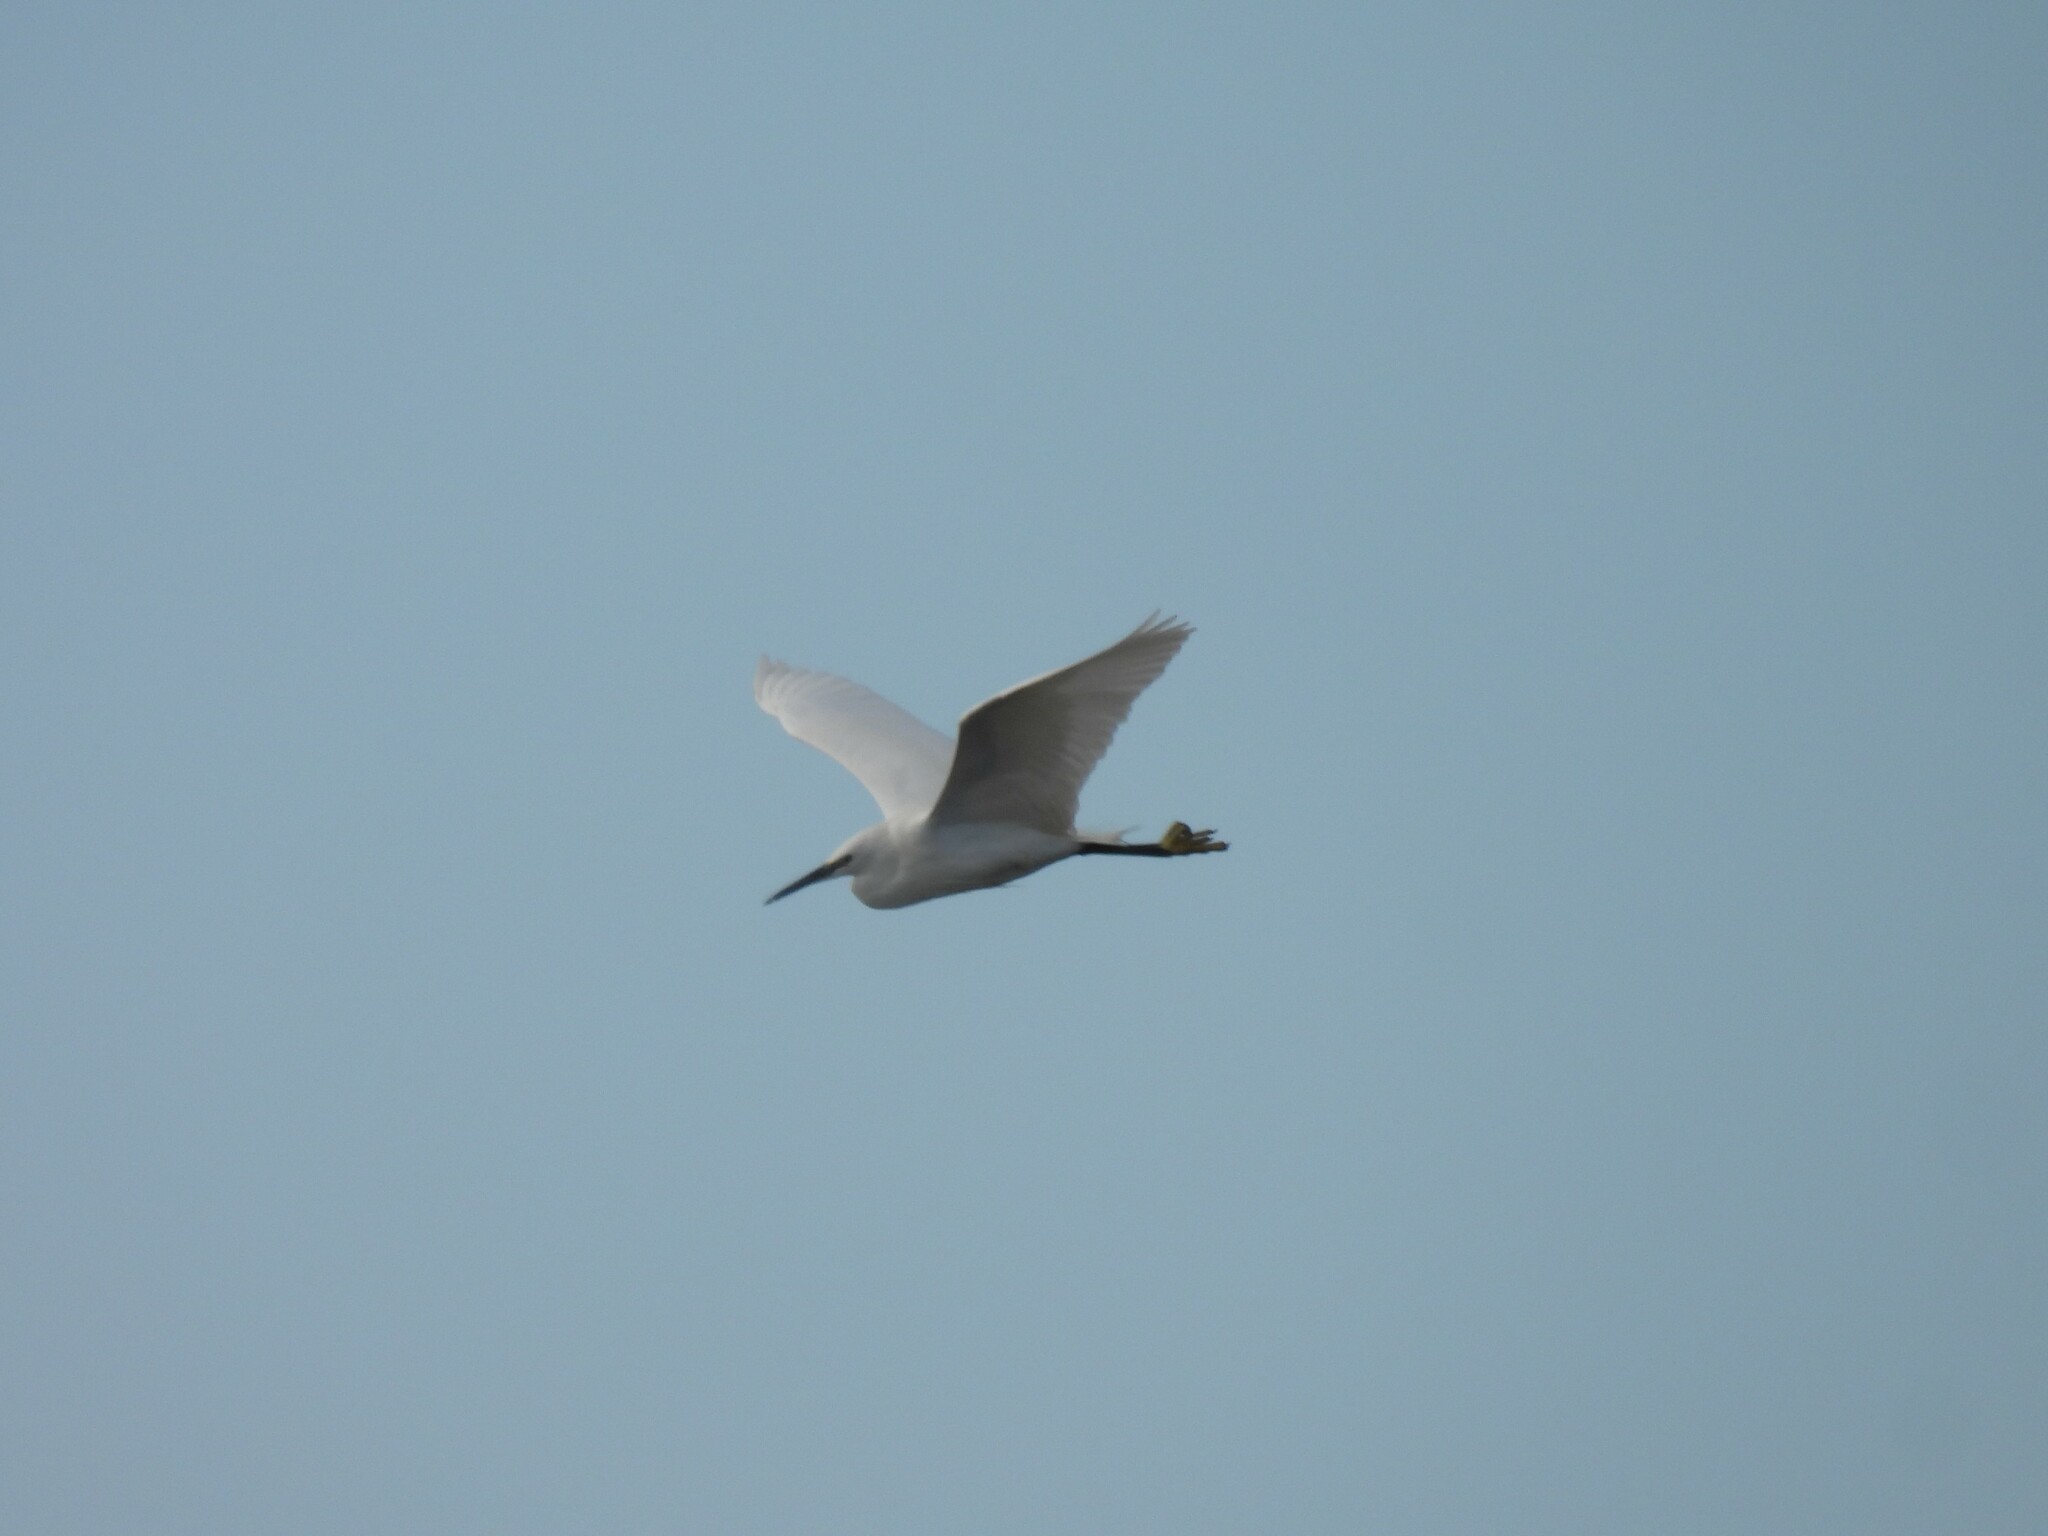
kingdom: Animalia
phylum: Chordata
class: Aves
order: Pelecaniformes
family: Ardeidae
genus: Egretta
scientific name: Egretta garzetta
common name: Little egret
